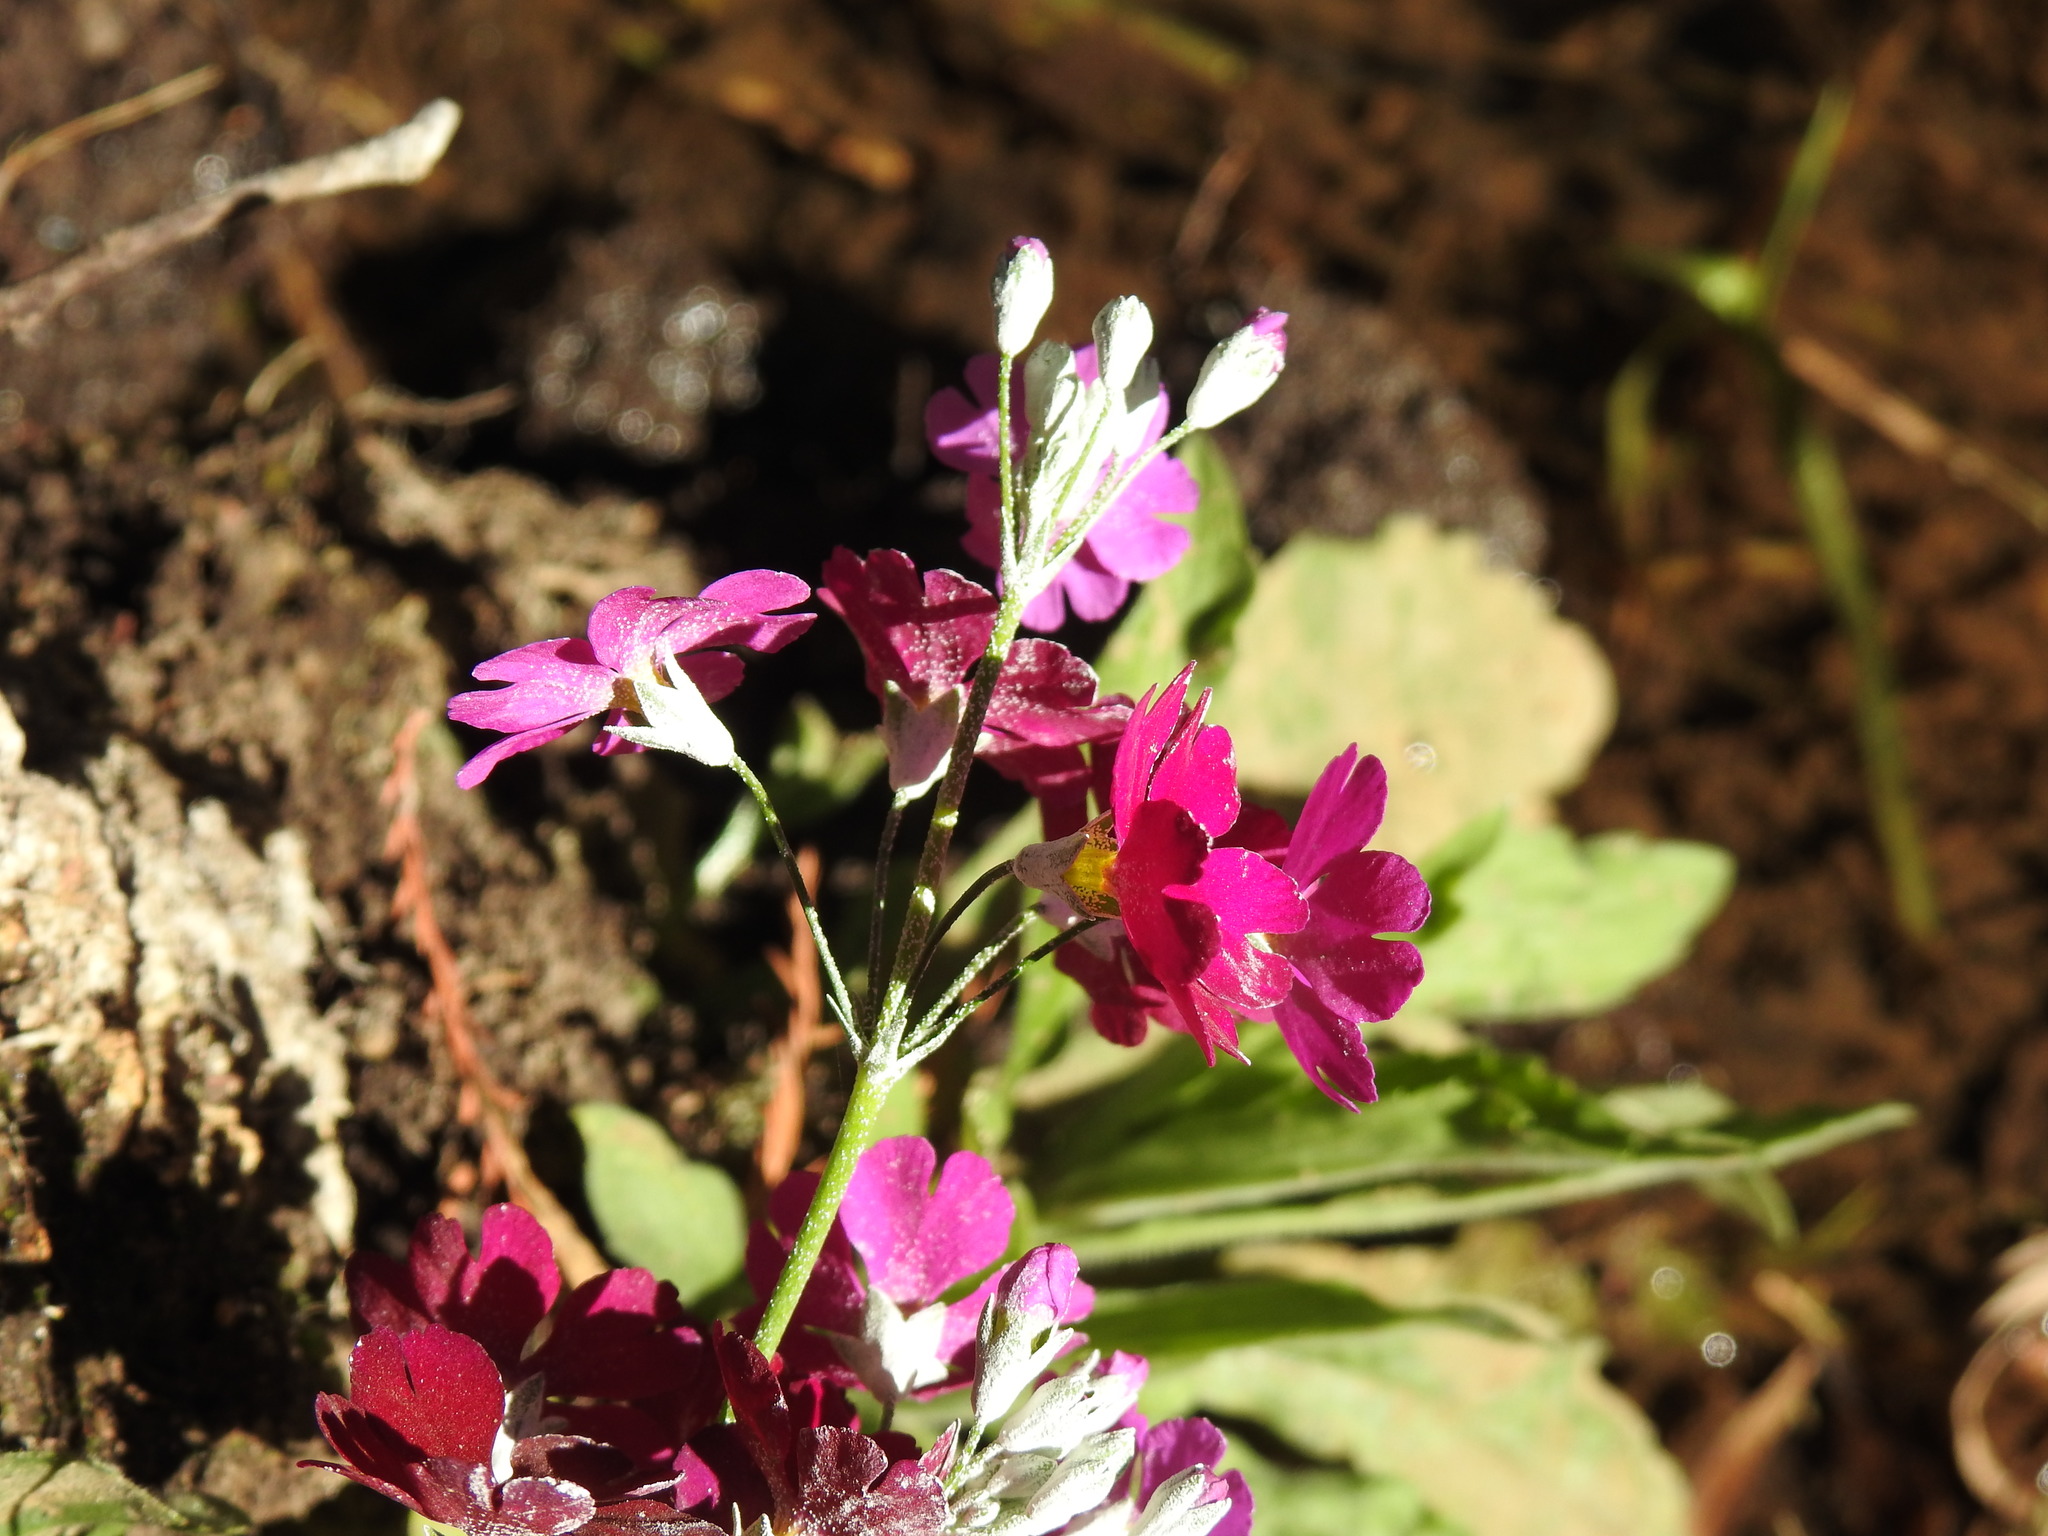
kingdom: Plantae
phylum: Tracheophyta
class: Magnoliopsida
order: Ericales
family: Primulaceae
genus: Primula
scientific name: Primula malacoides
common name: Baby primrose
